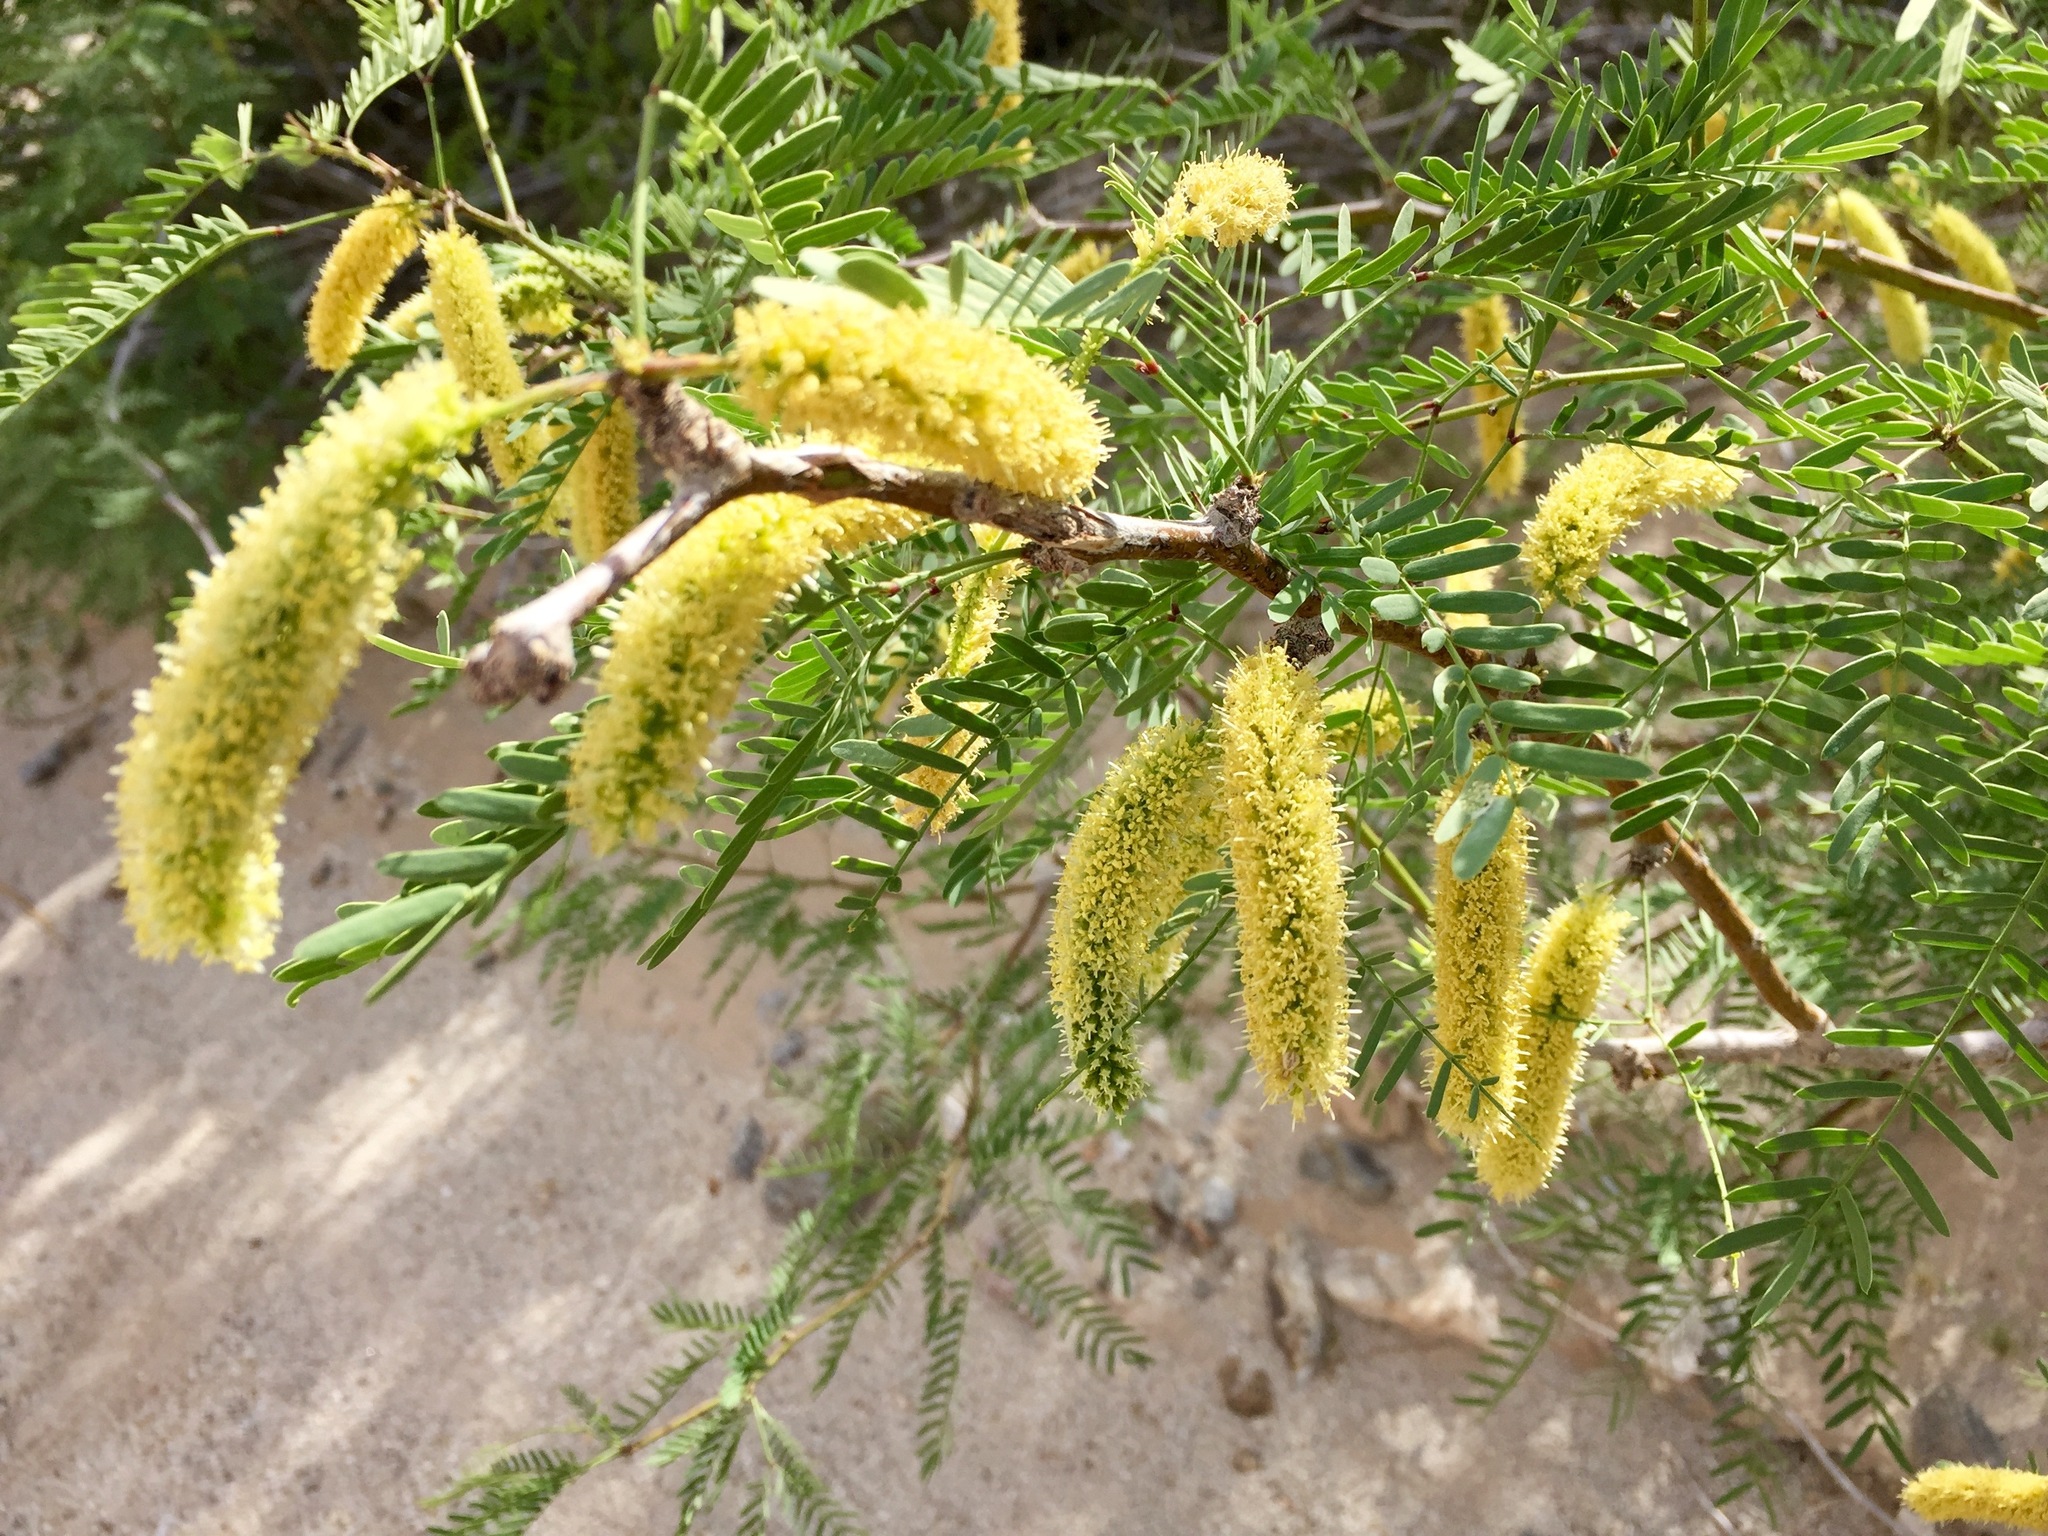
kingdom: Plantae
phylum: Tracheophyta
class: Magnoliopsida
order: Fabales
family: Fabaceae
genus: Prosopis
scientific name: Prosopis pubescens
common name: Screw-bean
